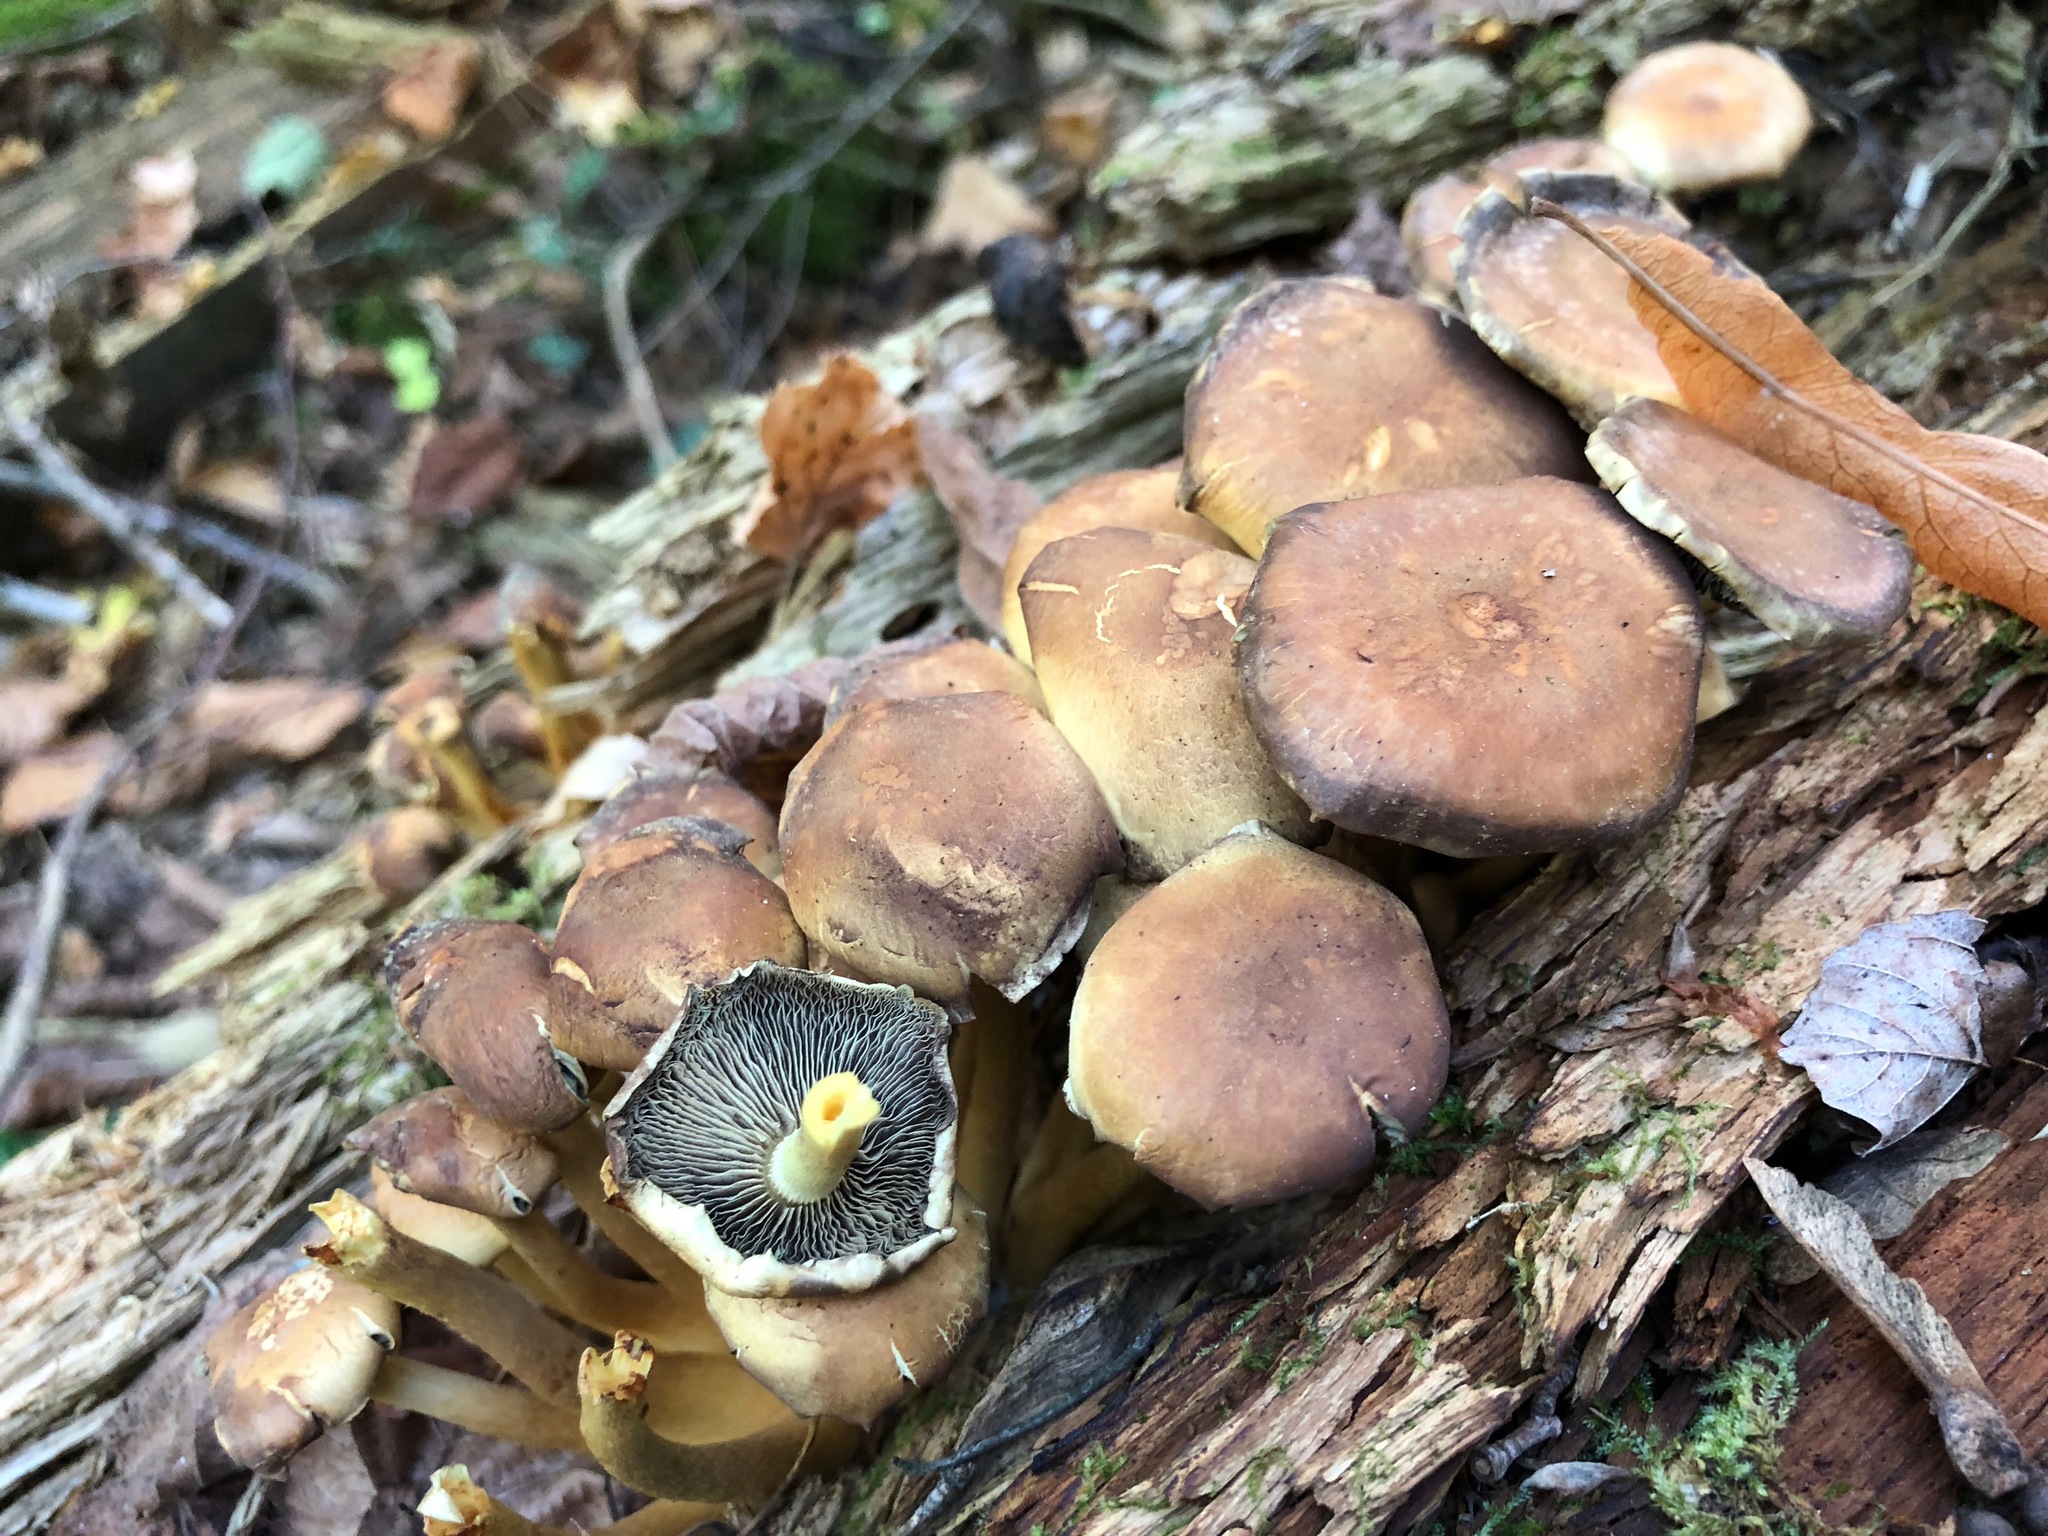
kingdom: Fungi
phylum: Basidiomycota
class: Agaricomycetes
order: Agaricales
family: Strophariaceae
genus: Hypholoma
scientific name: Hypholoma fasciculare
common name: Sulphur tuft
